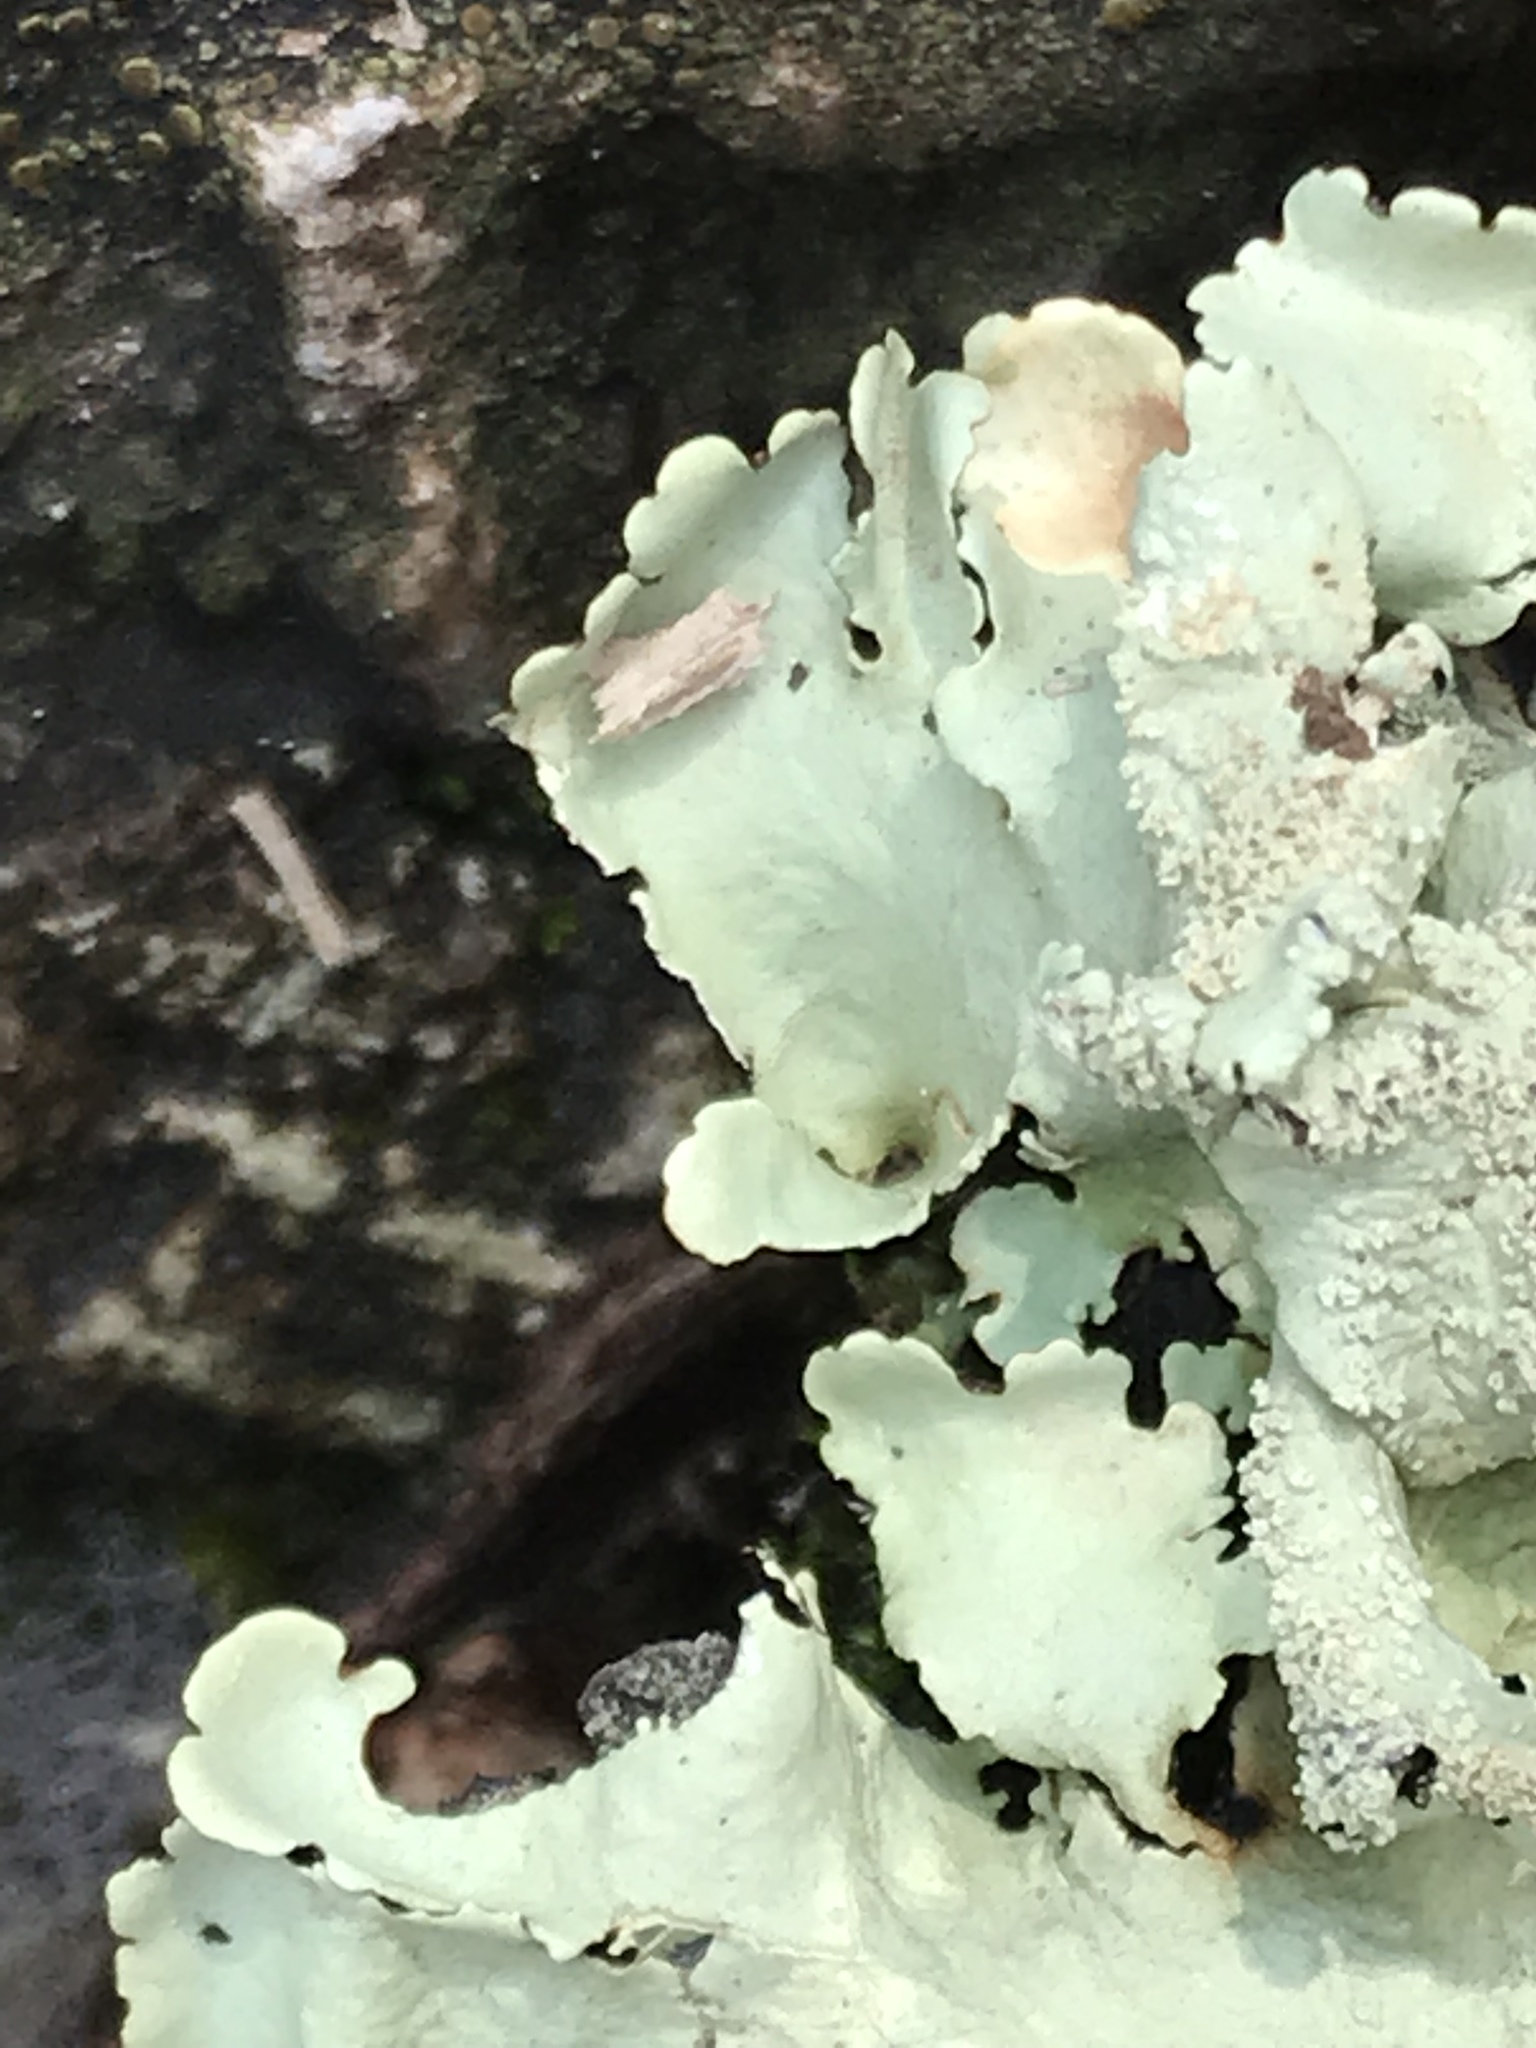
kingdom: Fungi
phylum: Ascomycota
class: Lecanoromycetes
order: Lecanorales
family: Parmeliaceae
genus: Flavoparmelia
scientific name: Flavoparmelia caperata
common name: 40-mile per hour lichen
